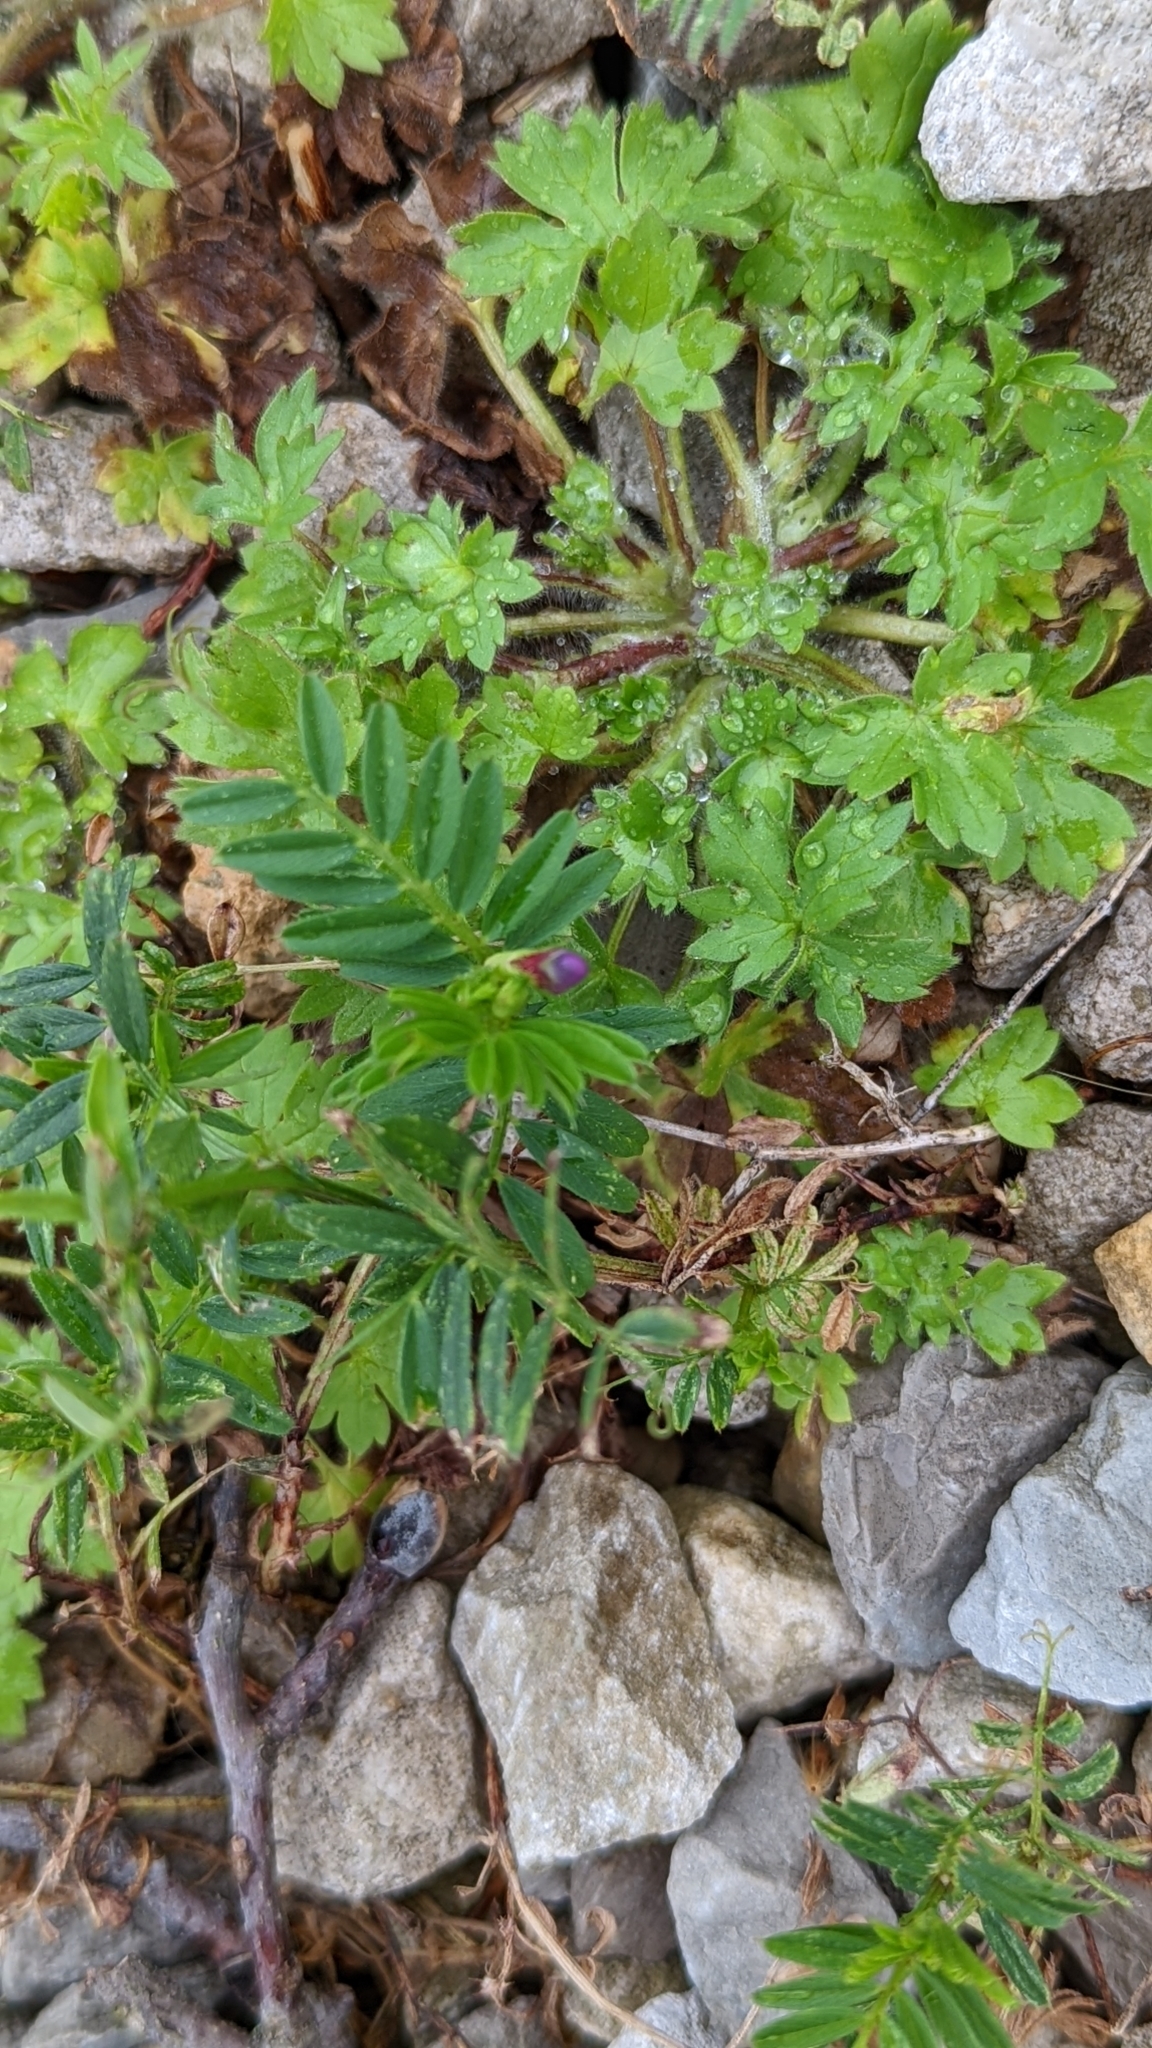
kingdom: Plantae
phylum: Tracheophyta
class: Magnoliopsida
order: Fabales
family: Fabaceae
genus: Vicia
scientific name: Vicia sativa
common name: Garden vetch
